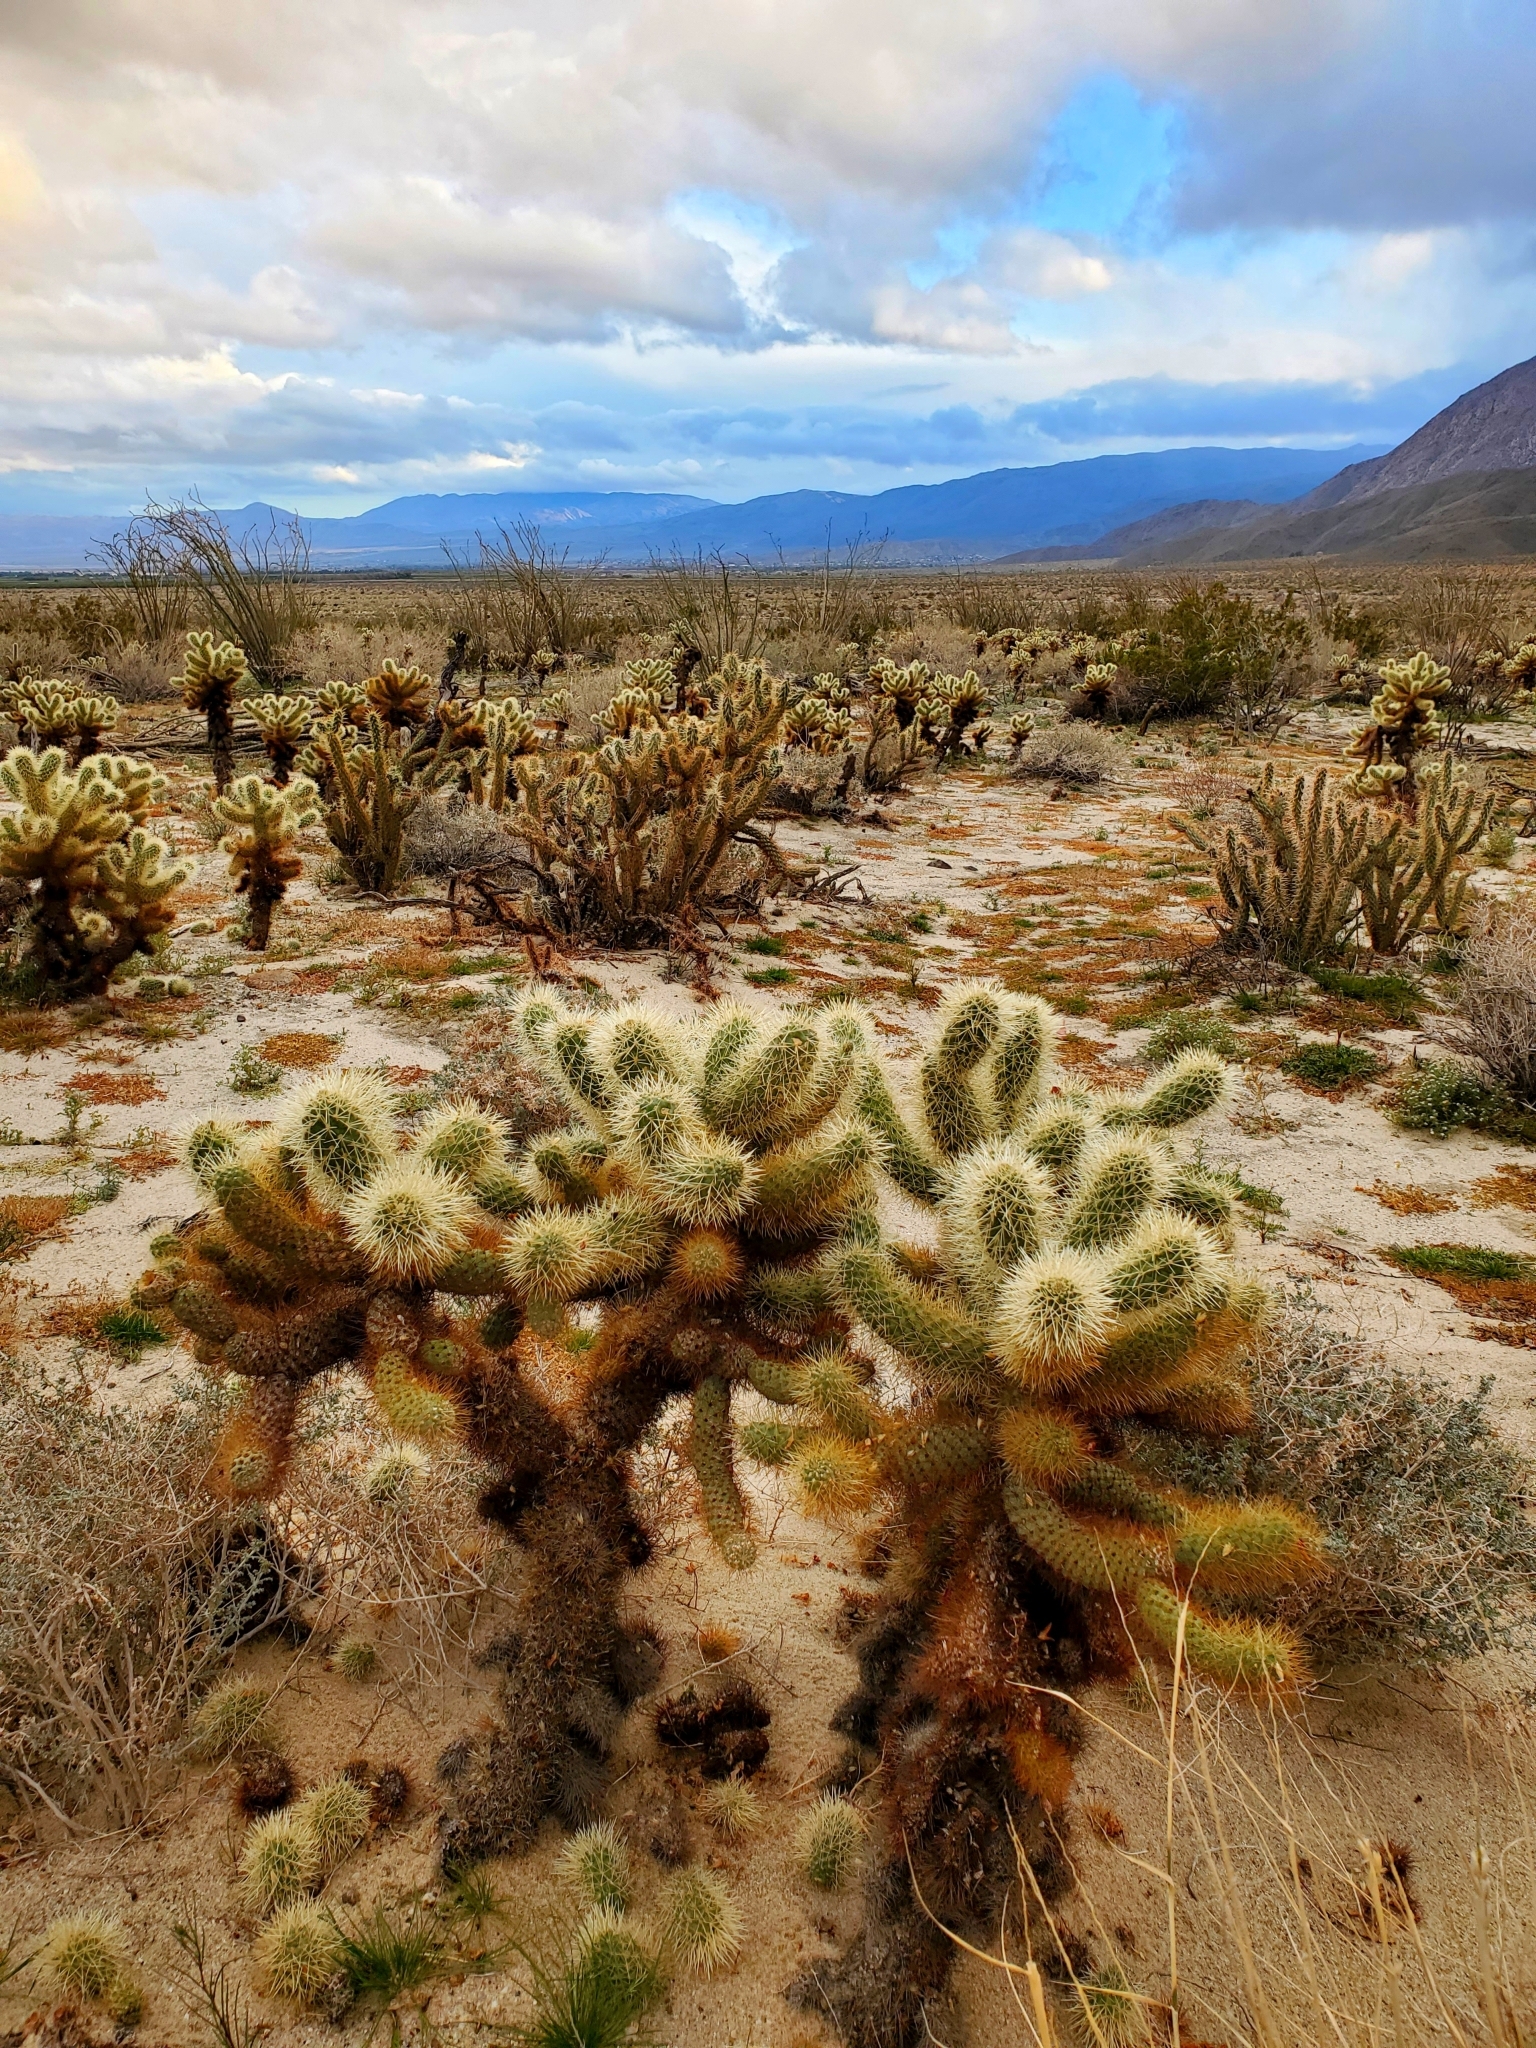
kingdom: Plantae
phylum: Tracheophyta
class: Magnoliopsida
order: Caryophyllales
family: Cactaceae
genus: Cylindropuntia
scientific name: Cylindropuntia fosbergii
